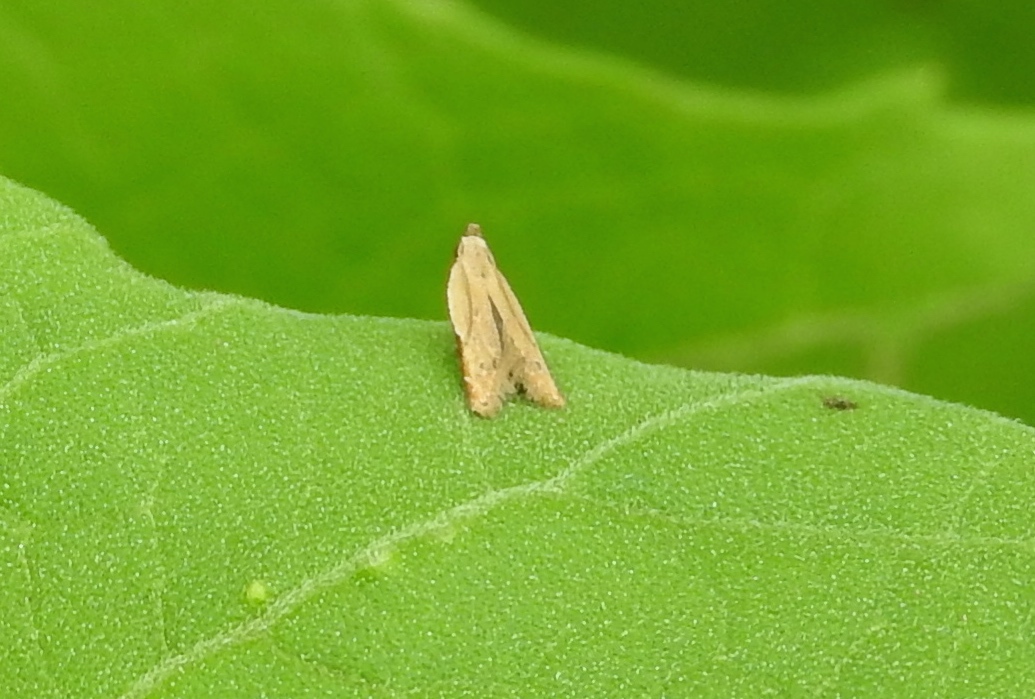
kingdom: Animalia
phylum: Arthropoda
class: Insecta
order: Lepidoptera
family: Gelechiidae
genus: Mesophleps
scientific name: Mesophleps adustipennis
